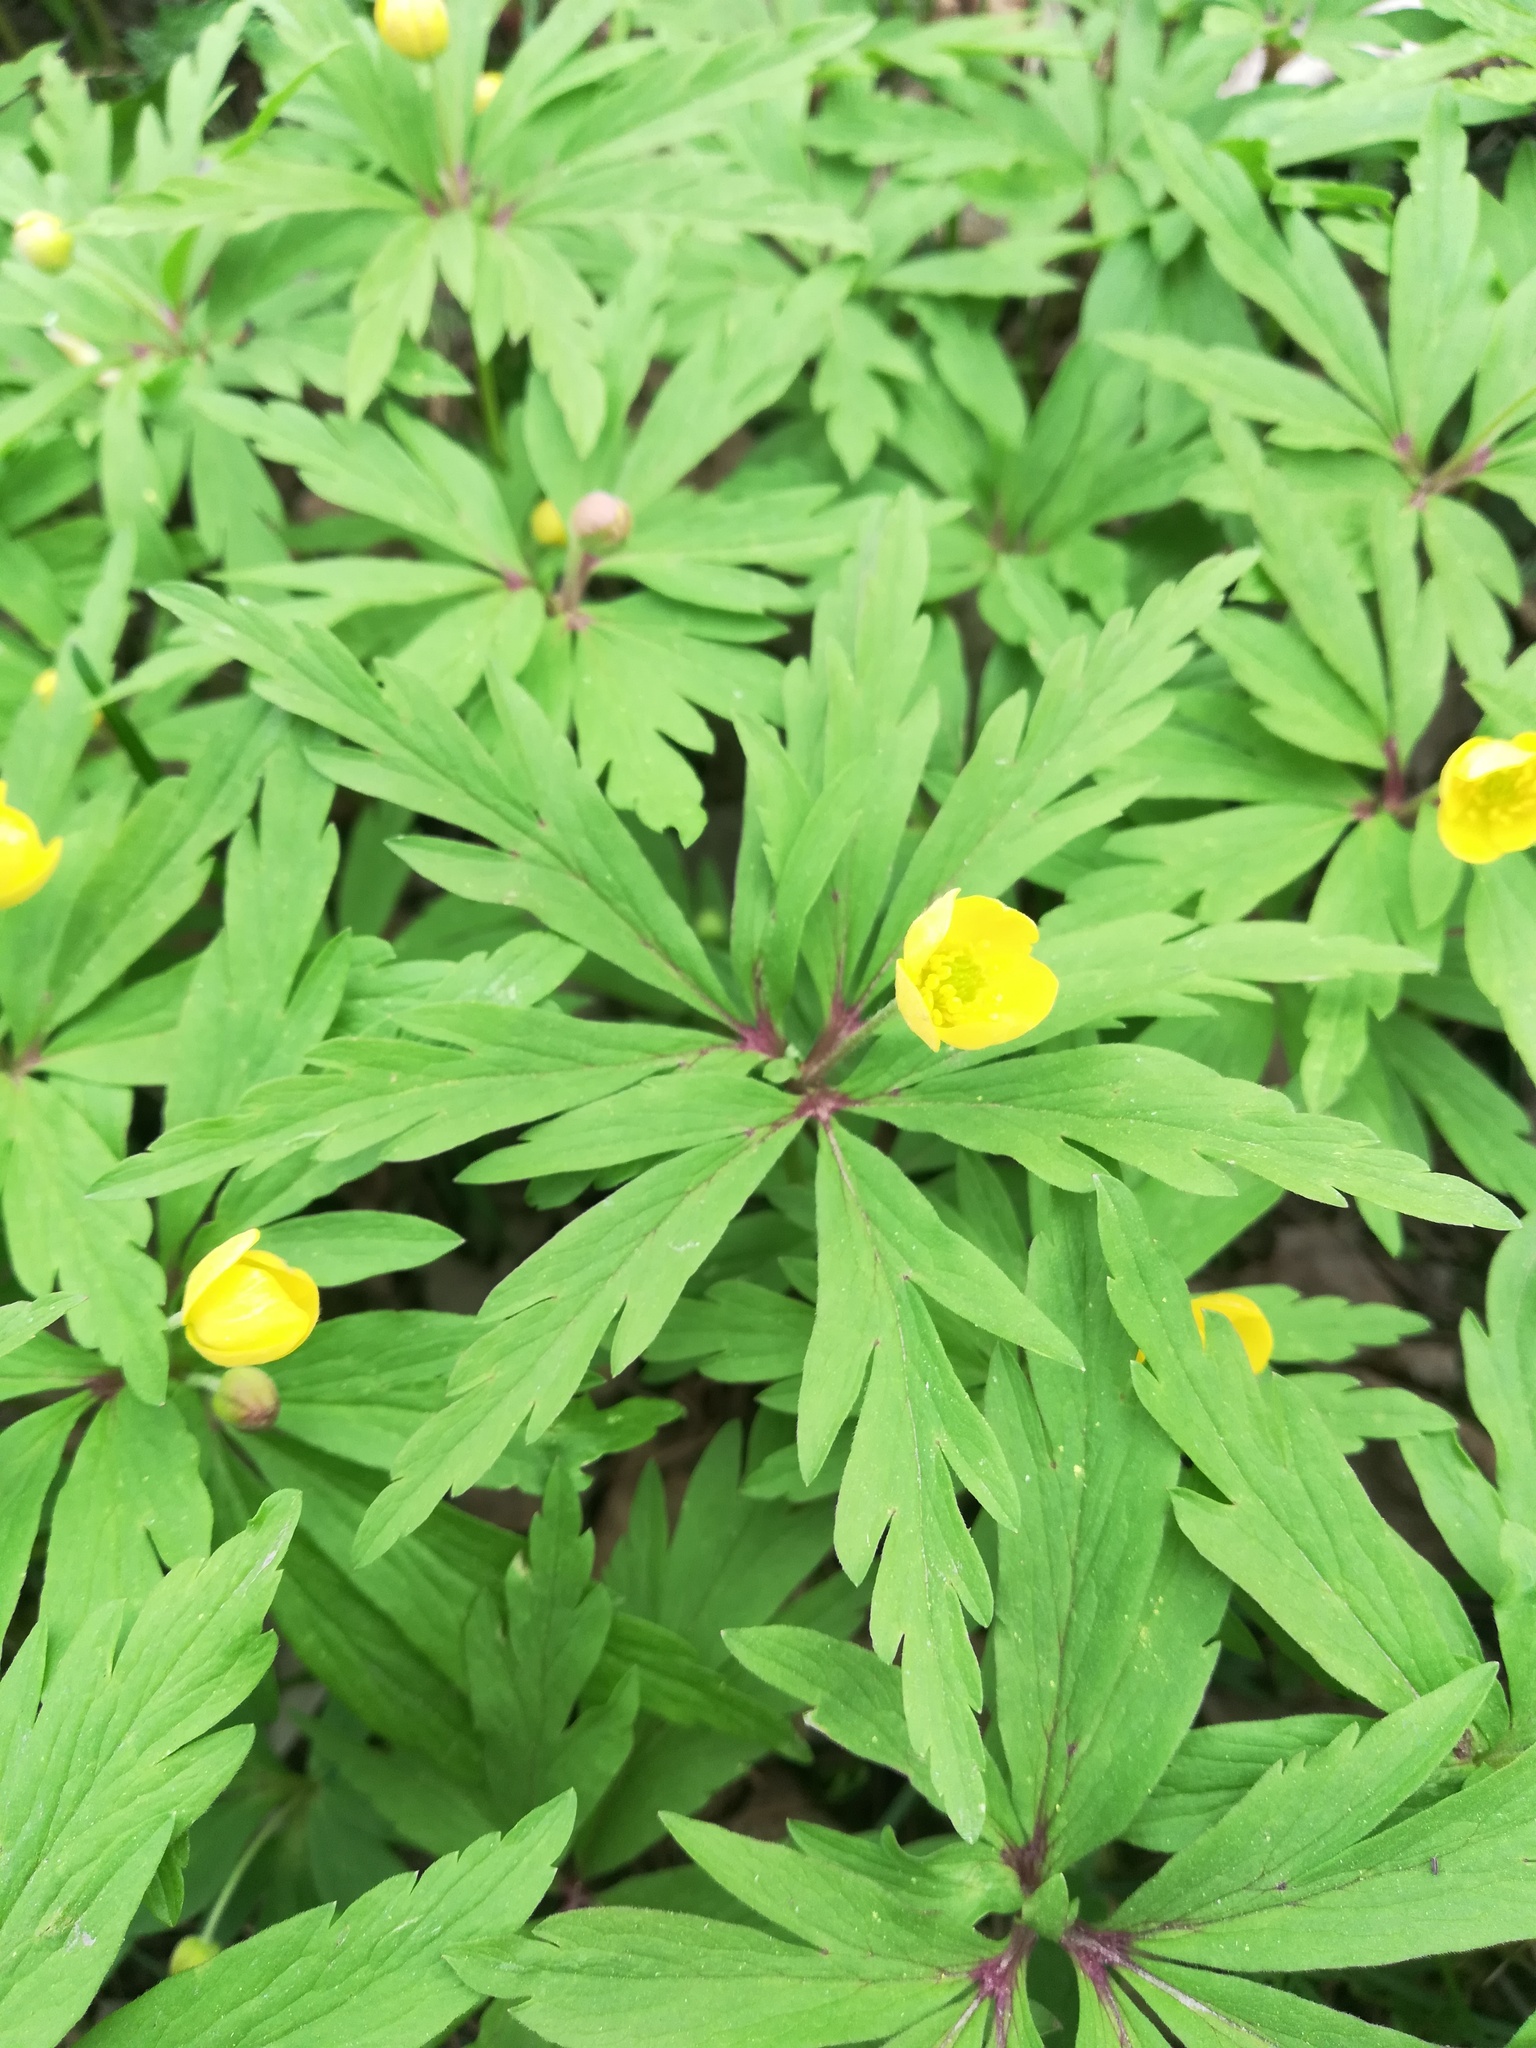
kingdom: Plantae
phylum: Tracheophyta
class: Magnoliopsida
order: Ranunculales
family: Ranunculaceae
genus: Anemone
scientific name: Anemone ranunculoides
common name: Yellow anemone
